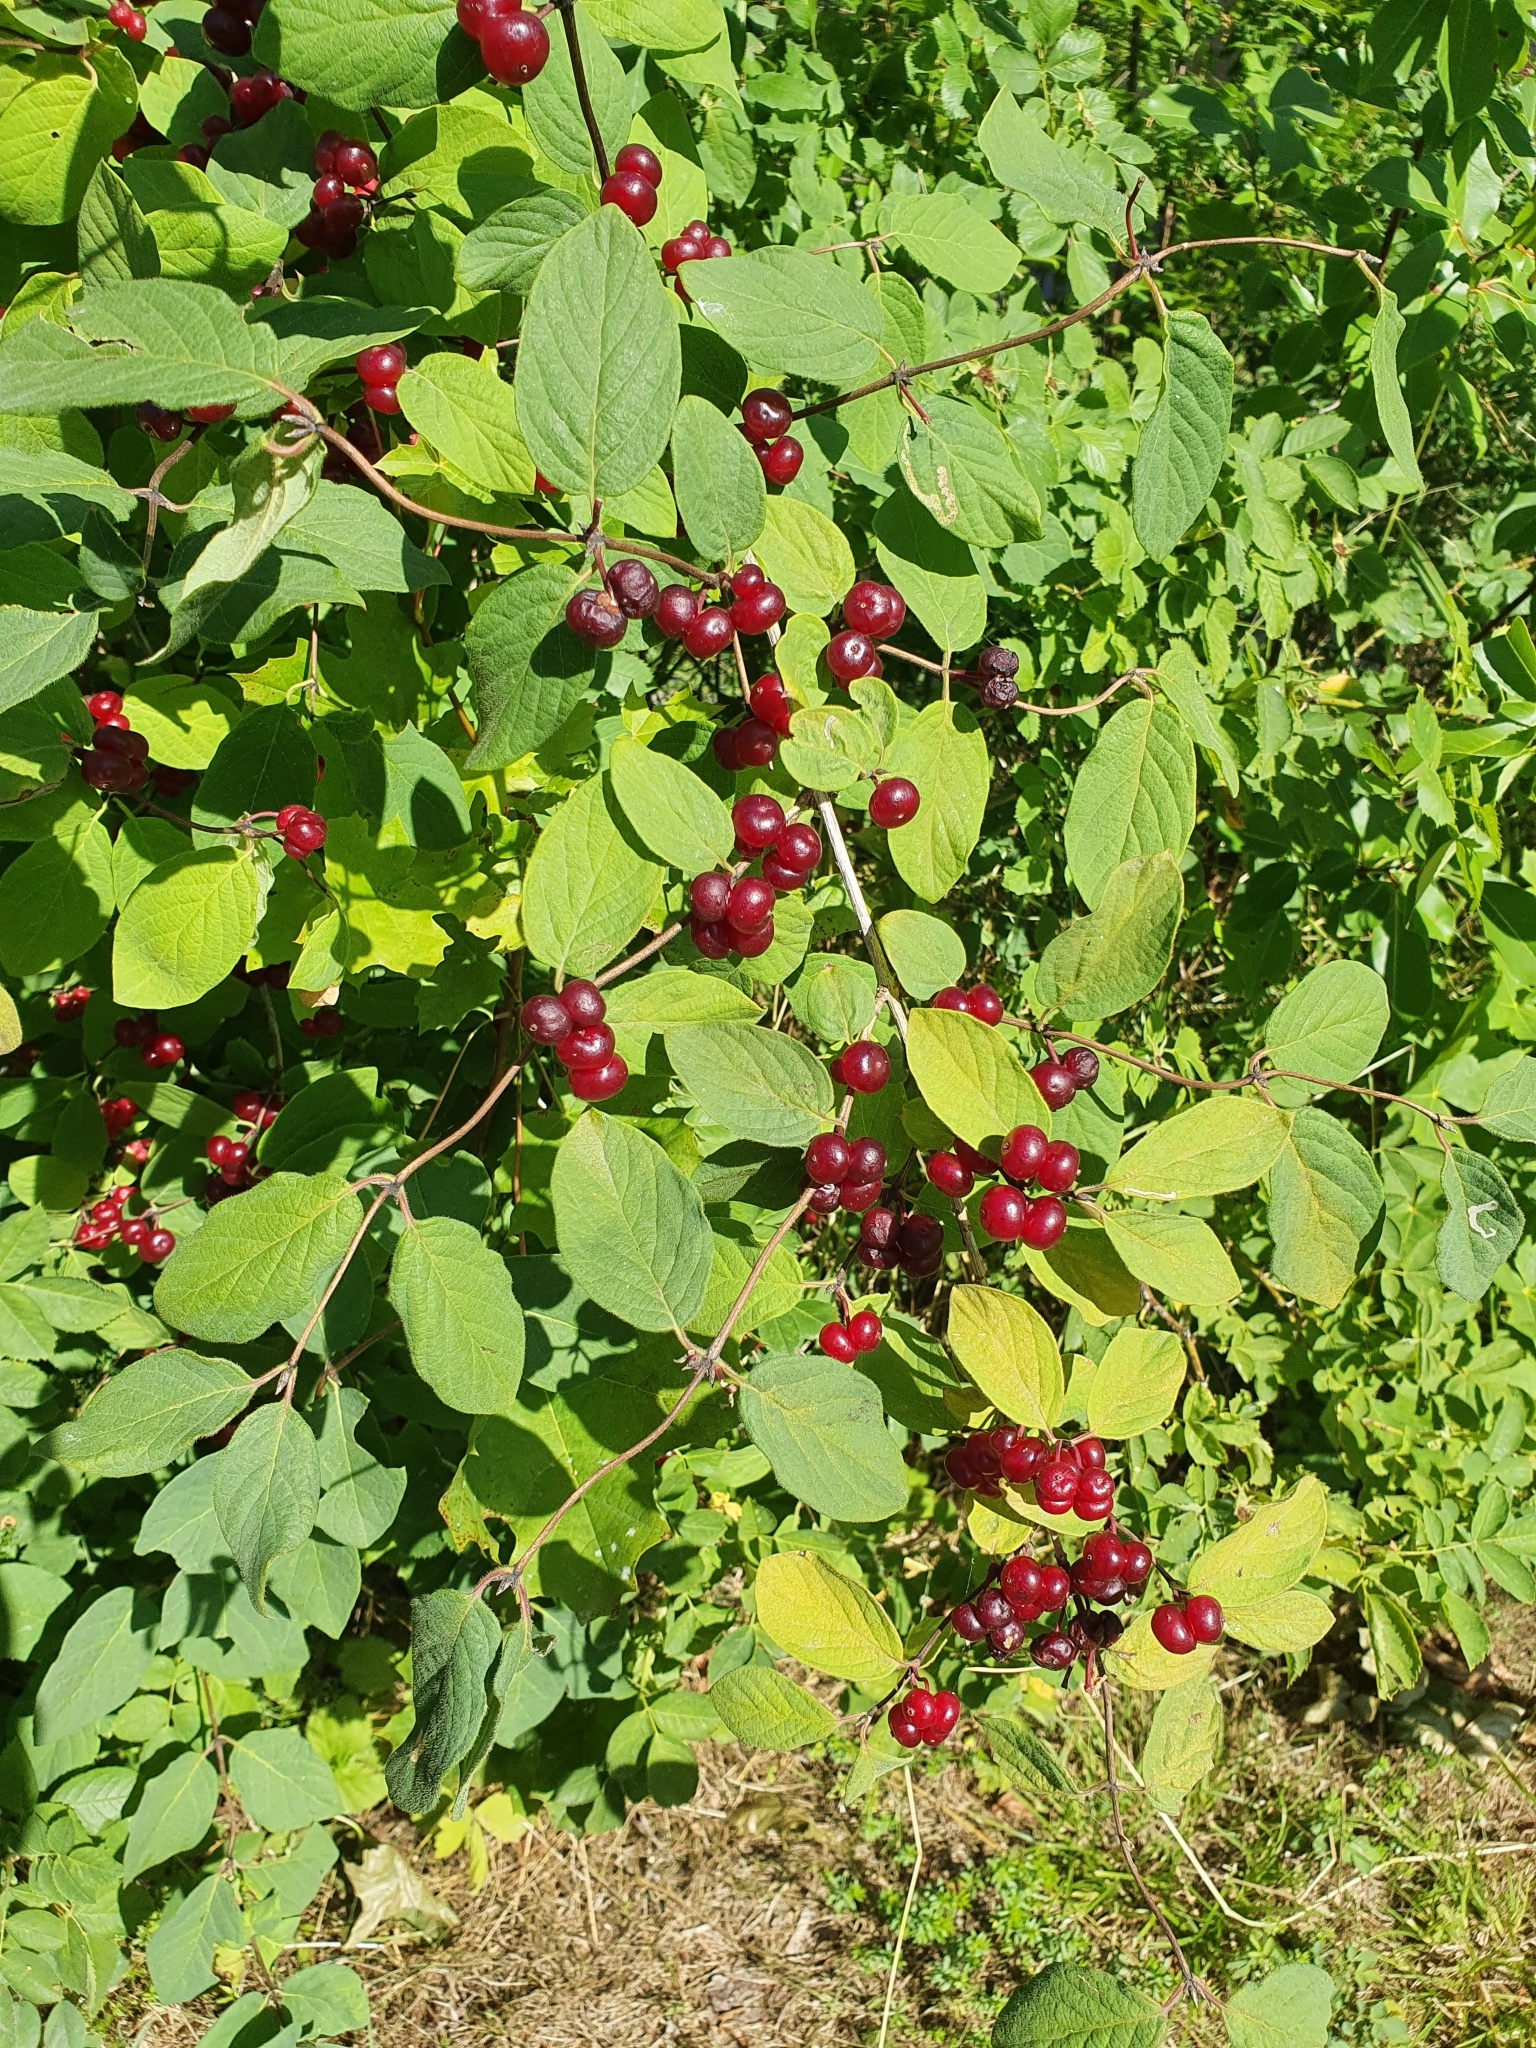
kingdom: Plantae
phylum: Tracheophyta
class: Magnoliopsida
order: Dipsacales
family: Caprifoliaceae
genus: Lonicera
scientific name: Lonicera xylosteum
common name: Fly honeysuckle
